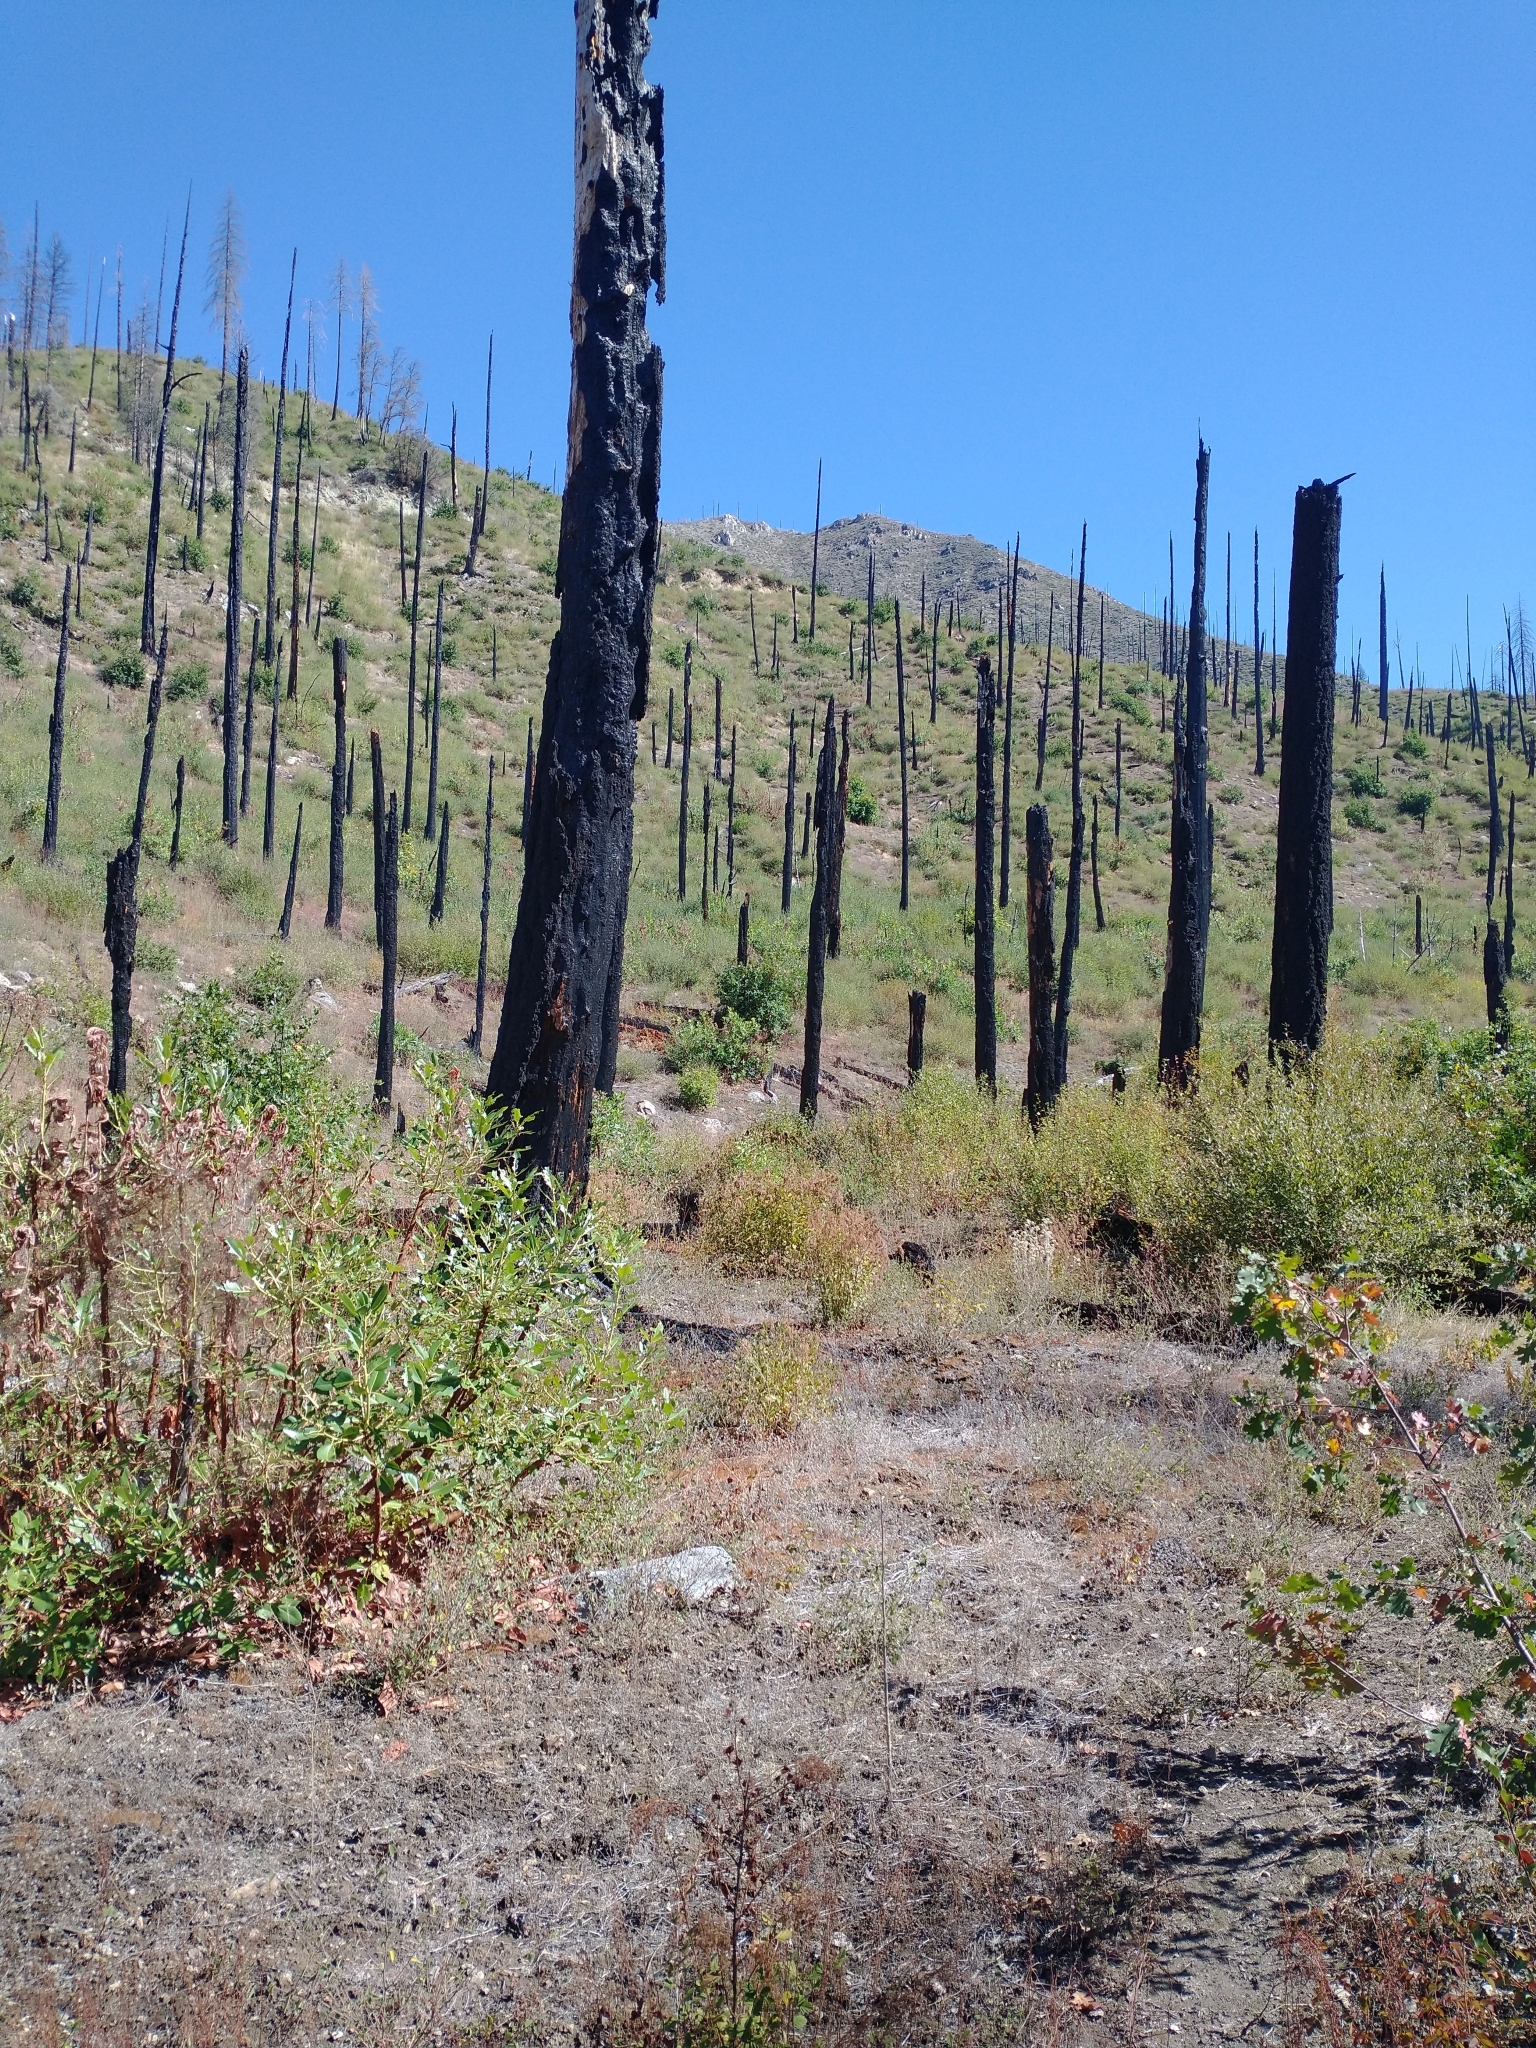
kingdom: Plantae
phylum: Tracheophyta
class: Magnoliopsida
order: Ericales
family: Ericaceae
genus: Arbutus
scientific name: Arbutus menziesii
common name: Pacific madrone
